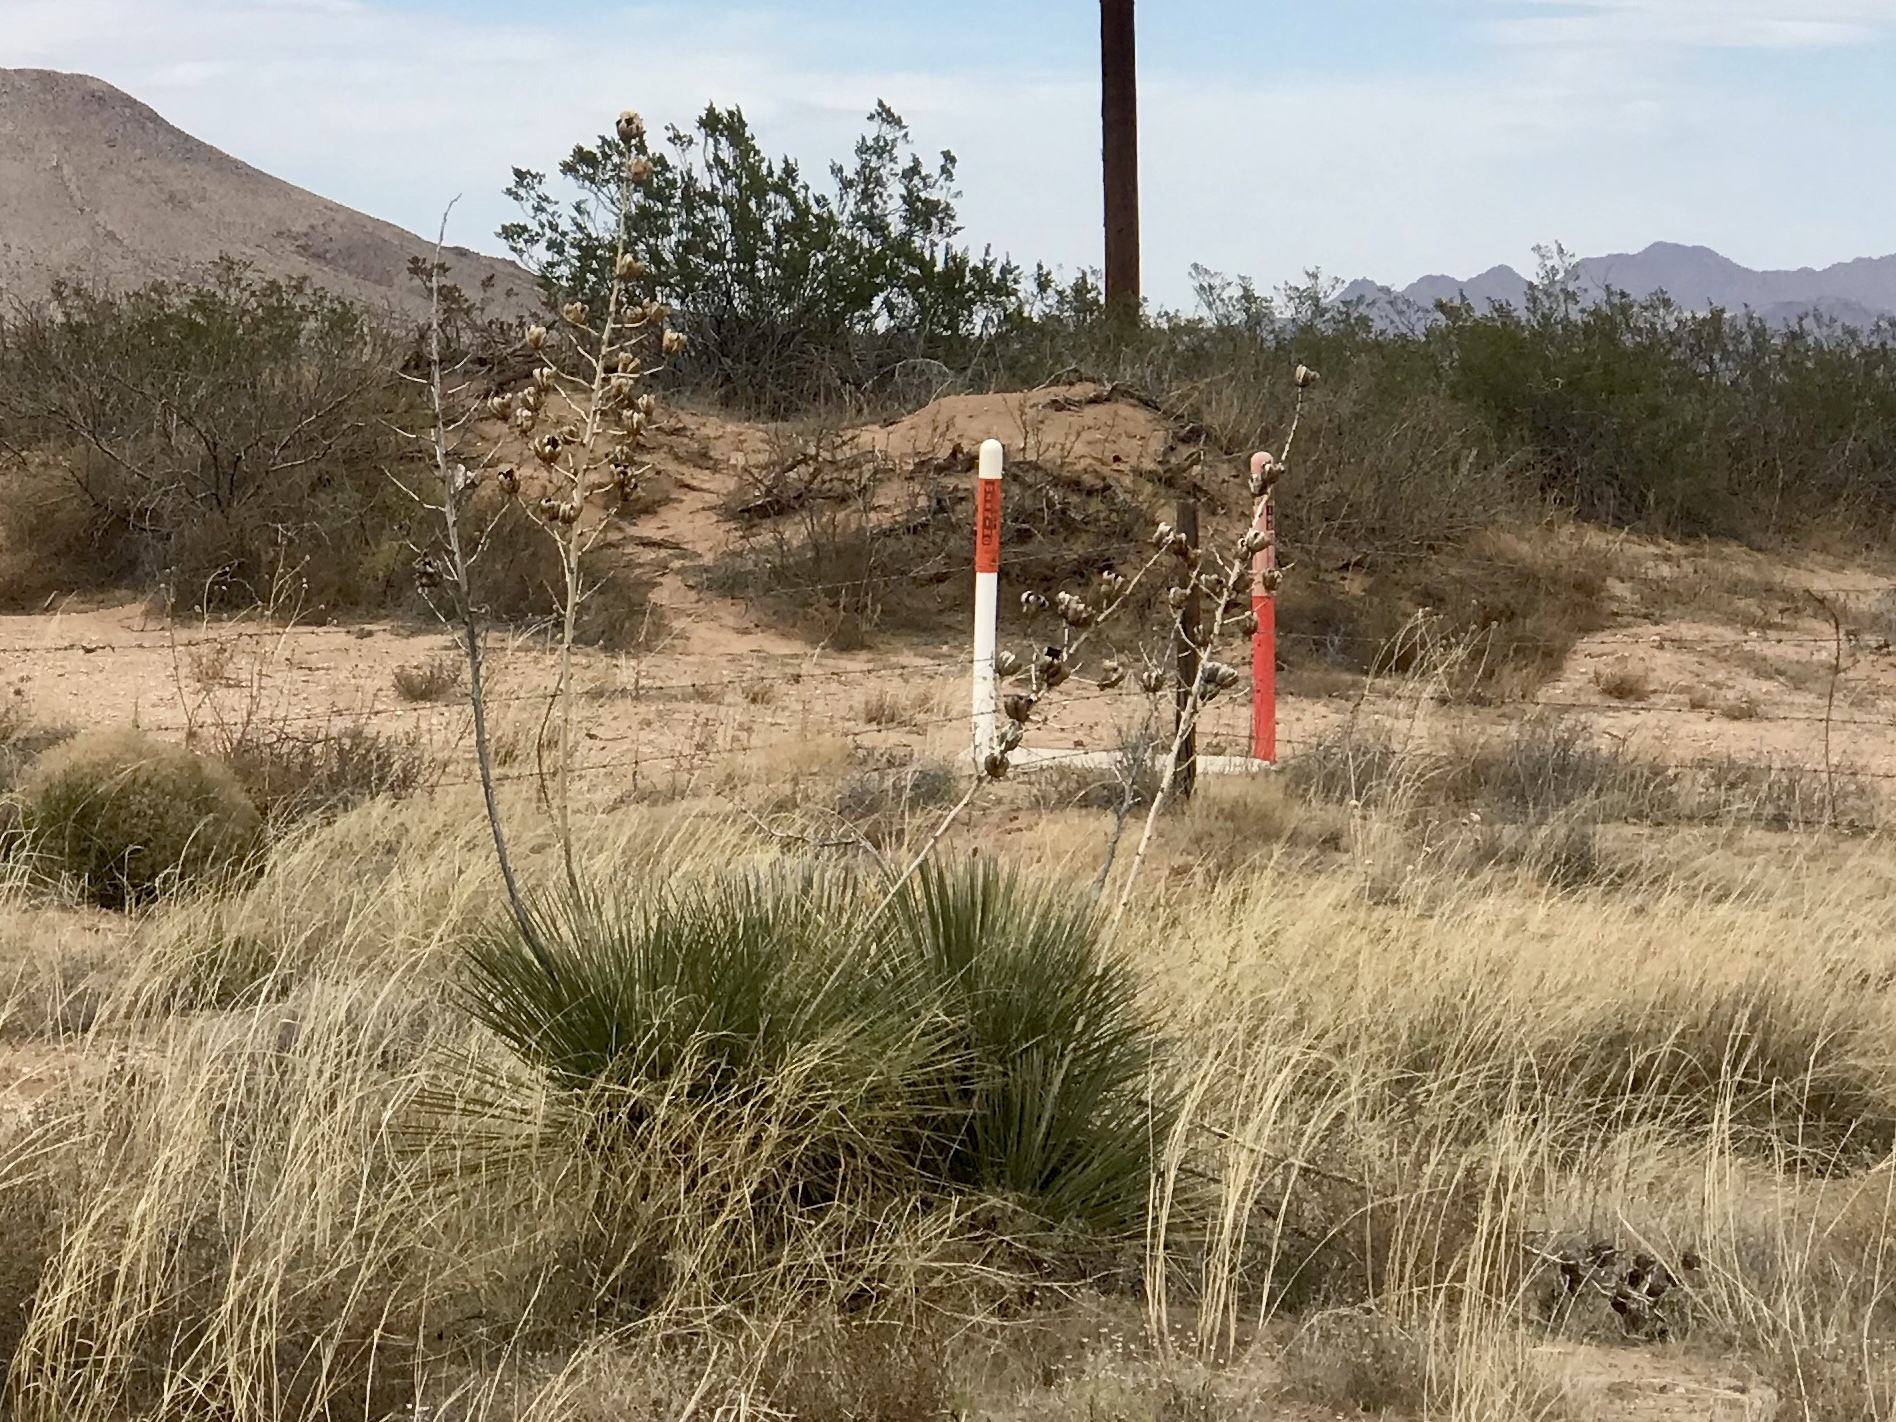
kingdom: Plantae
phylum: Tracheophyta
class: Liliopsida
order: Asparagales
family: Asparagaceae
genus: Yucca
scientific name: Yucca elata
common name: Palmella
